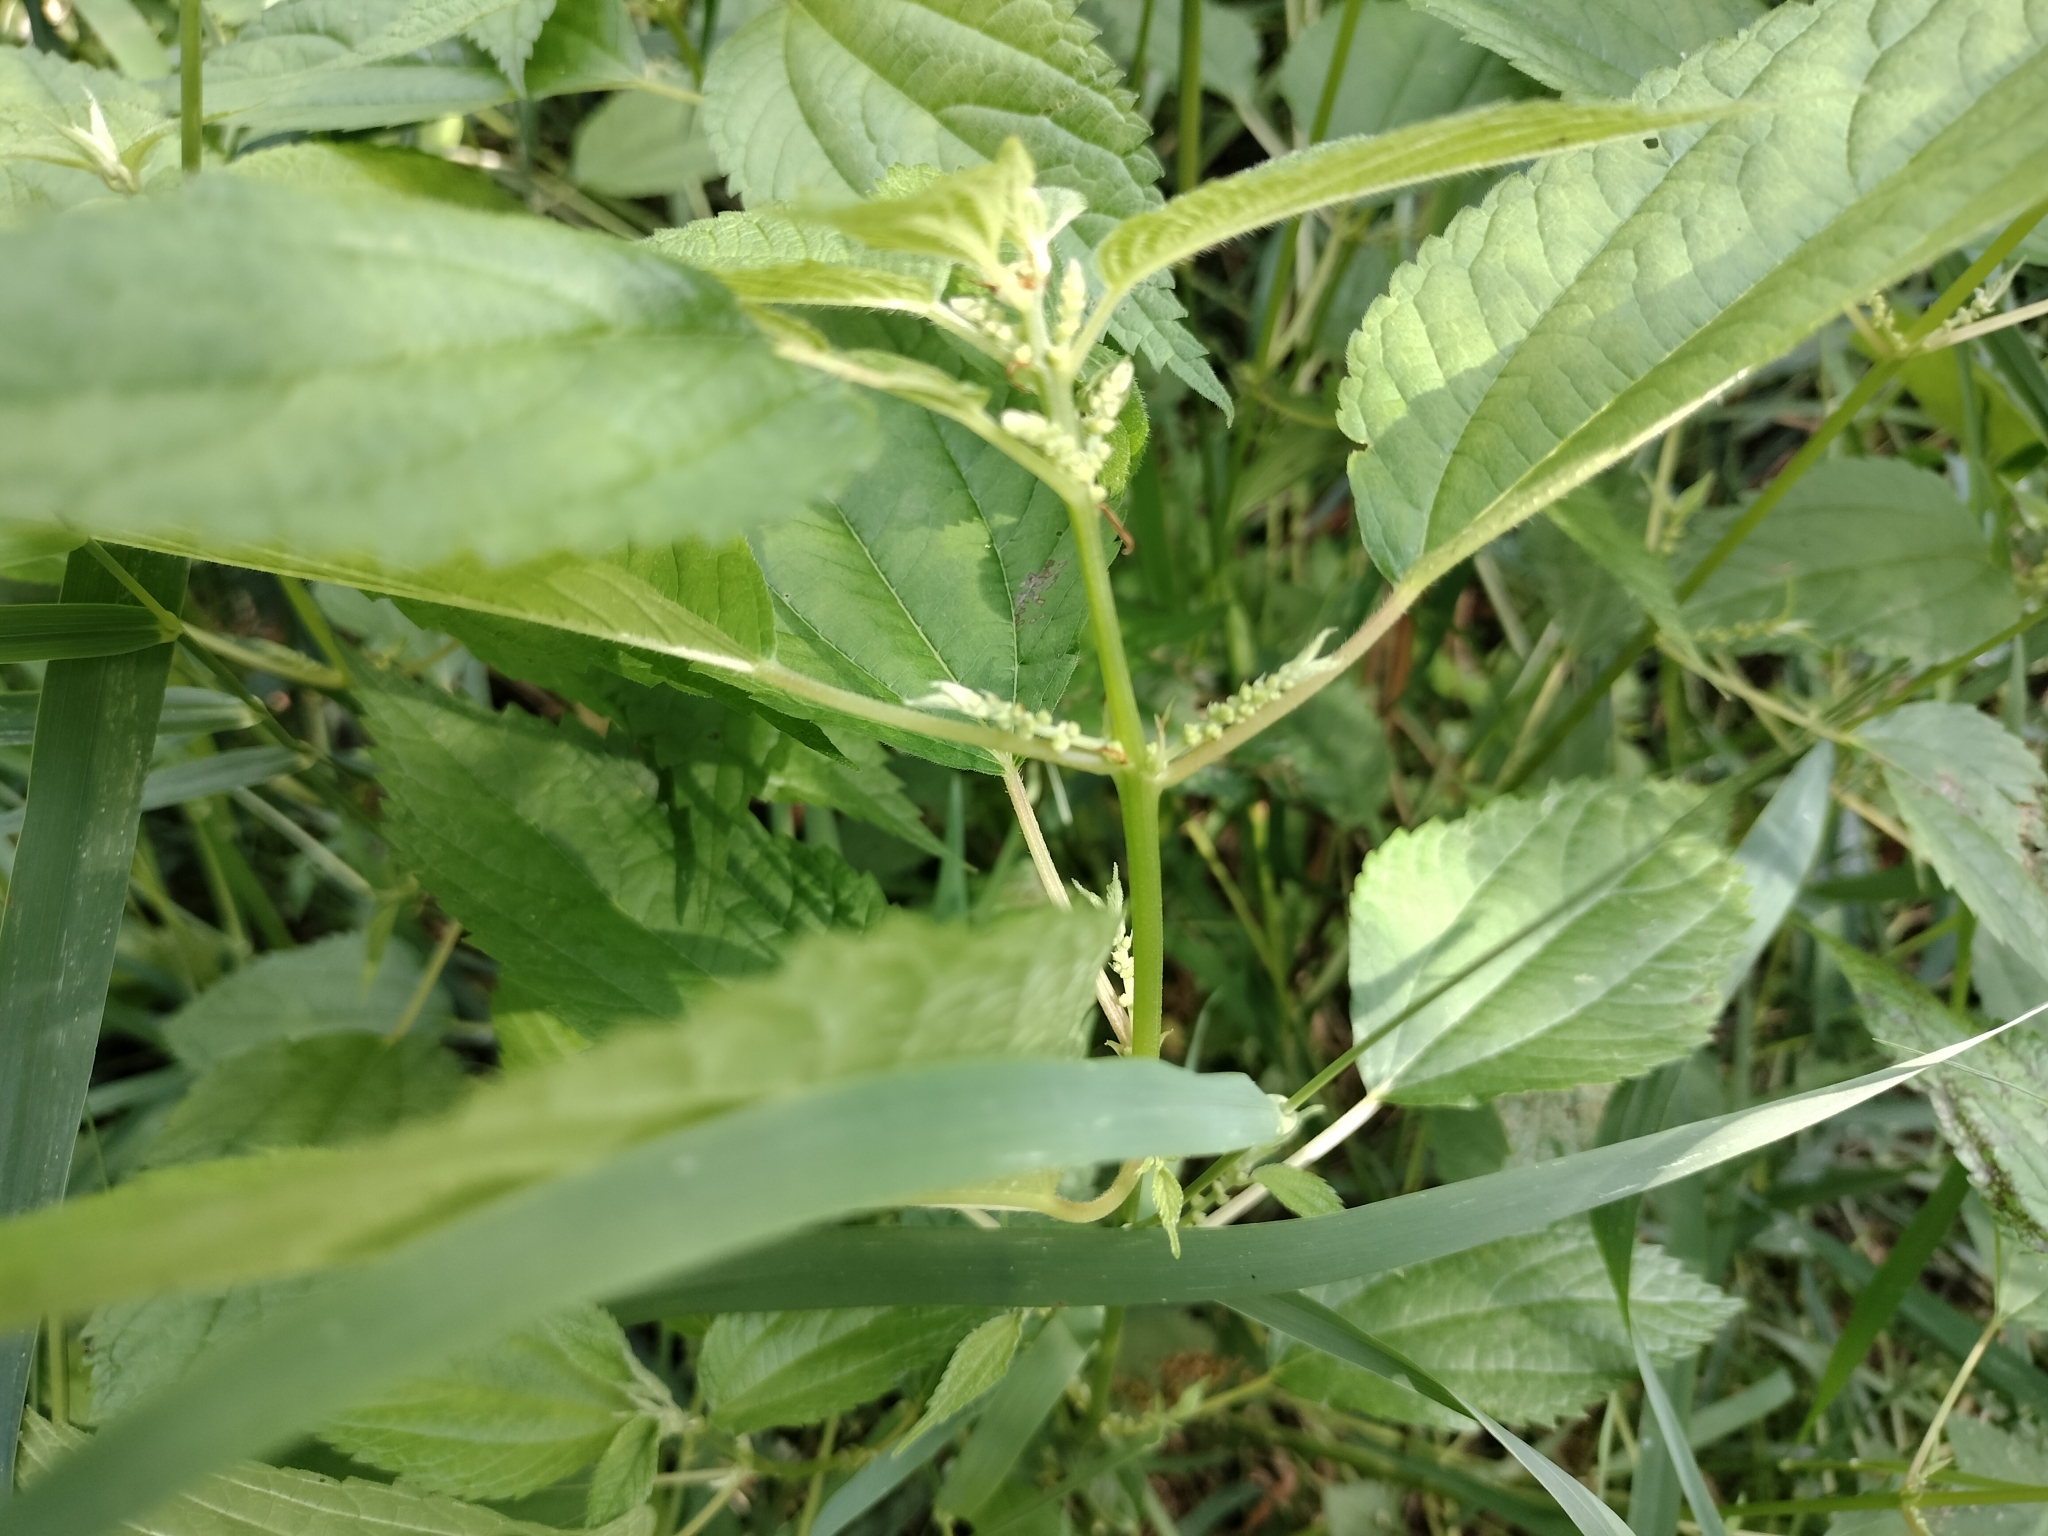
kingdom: Plantae
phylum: Tracheophyta
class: Magnoliopsida
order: Rosales
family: Urticaceae
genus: Boehmeria
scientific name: Boehmeria cylindrica
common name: Bog-hemp
